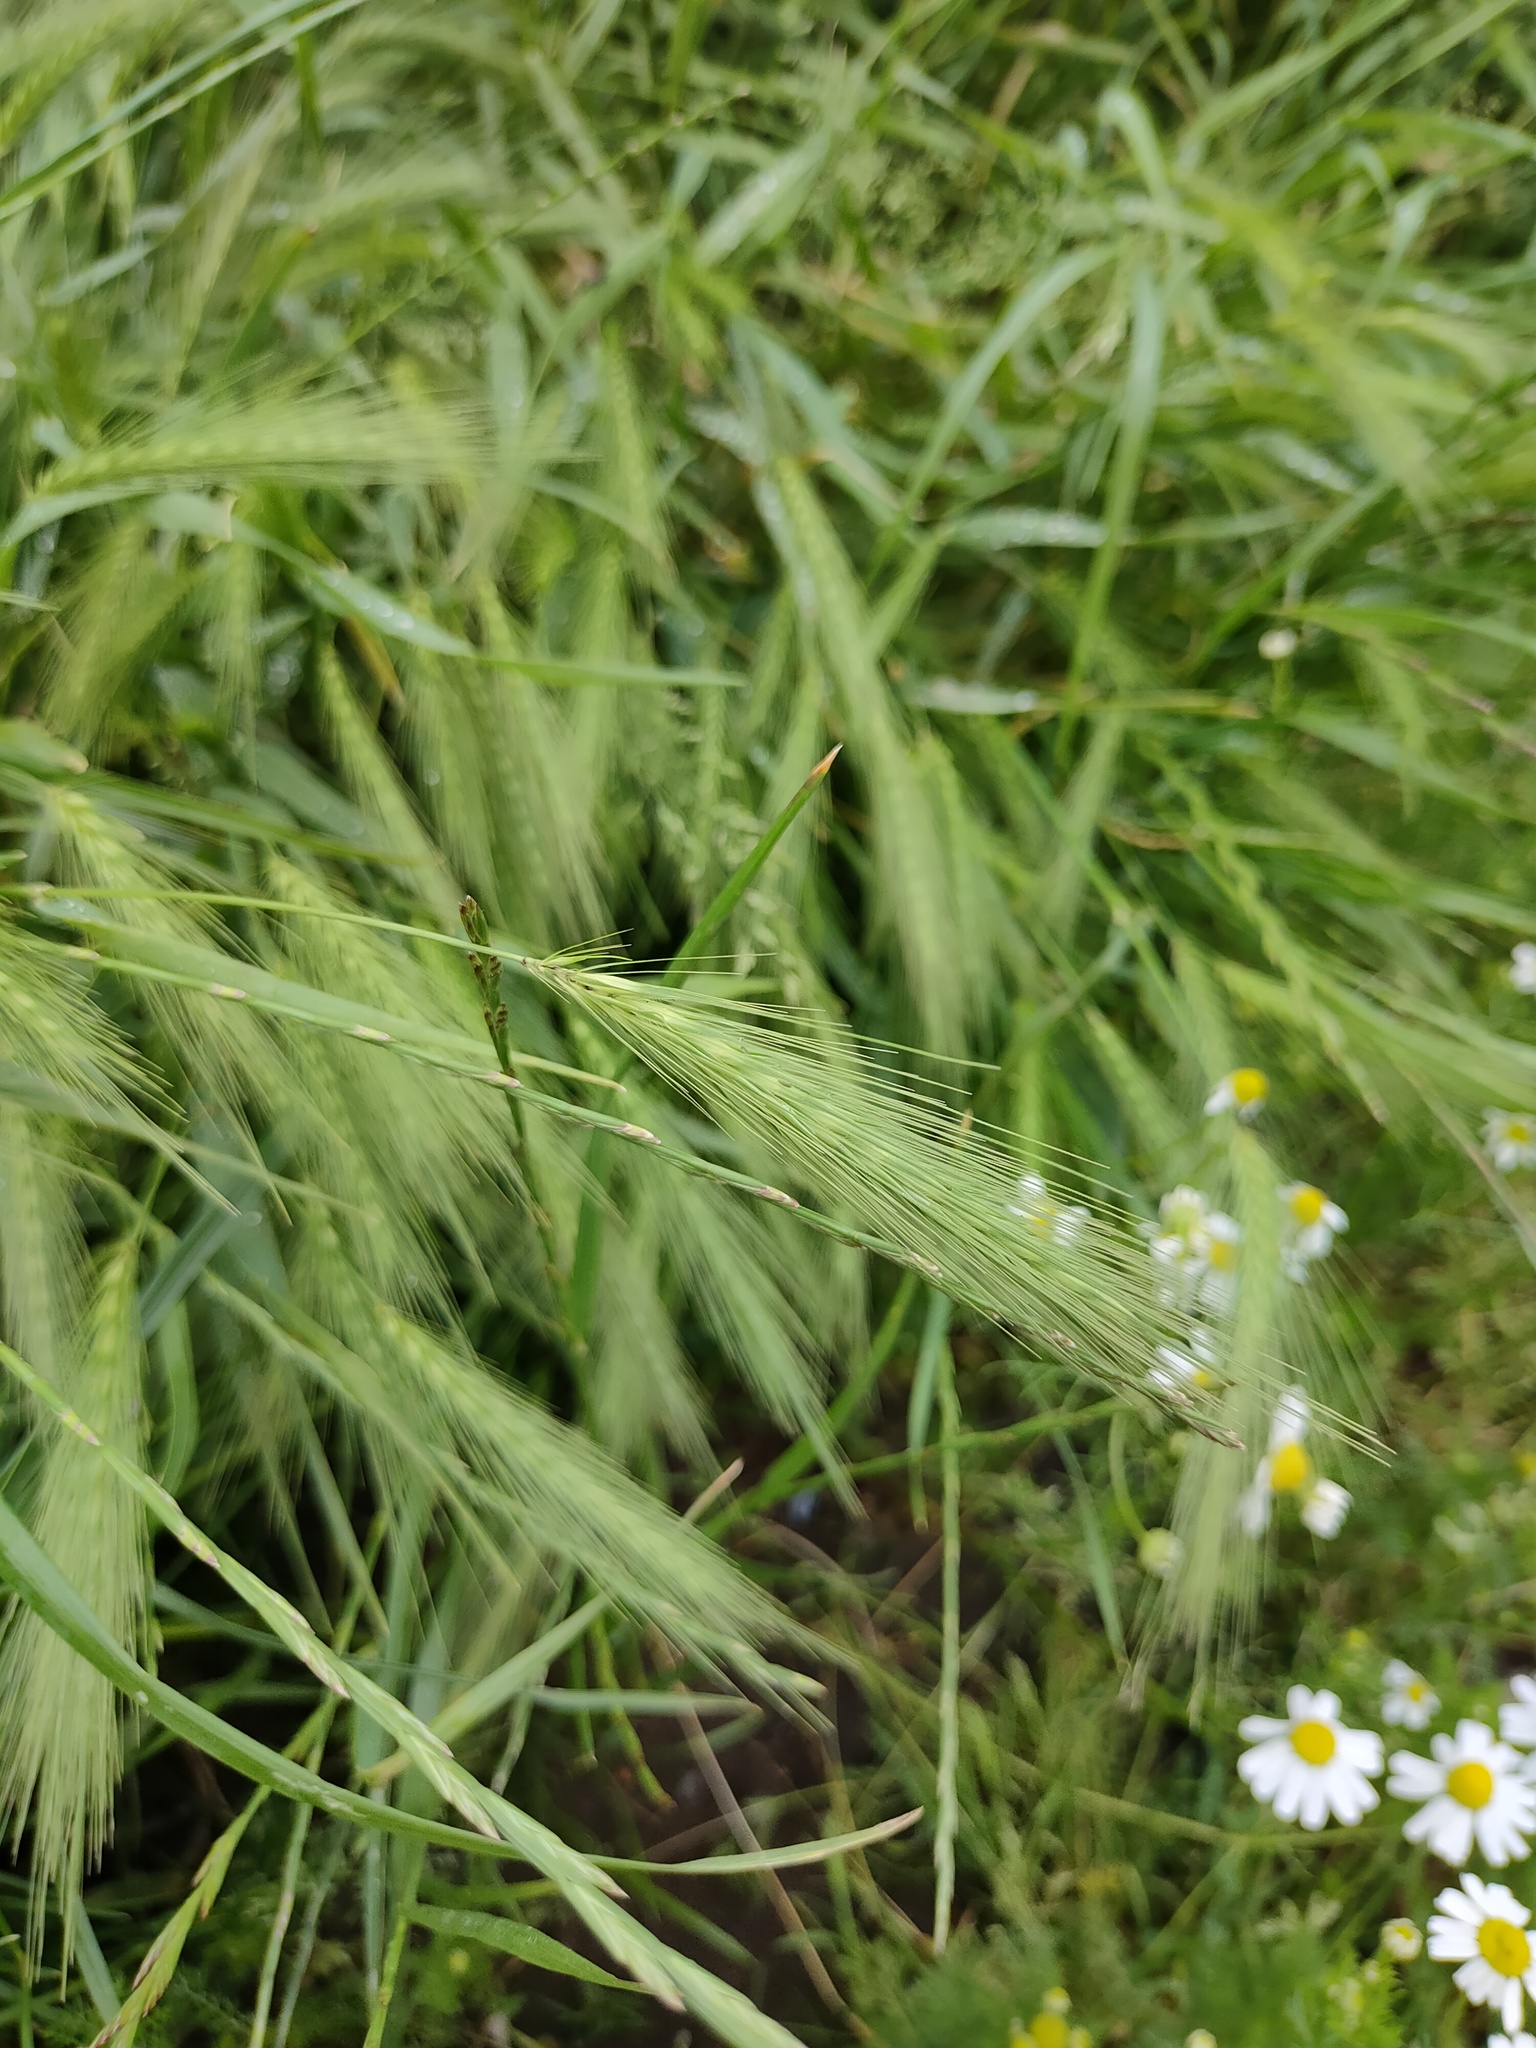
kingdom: Plantae
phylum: Tracheophyta
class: Liliopsida
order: Poales
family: Poaceae
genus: Hordeum
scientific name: Hordeum murinum
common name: Wall barley
